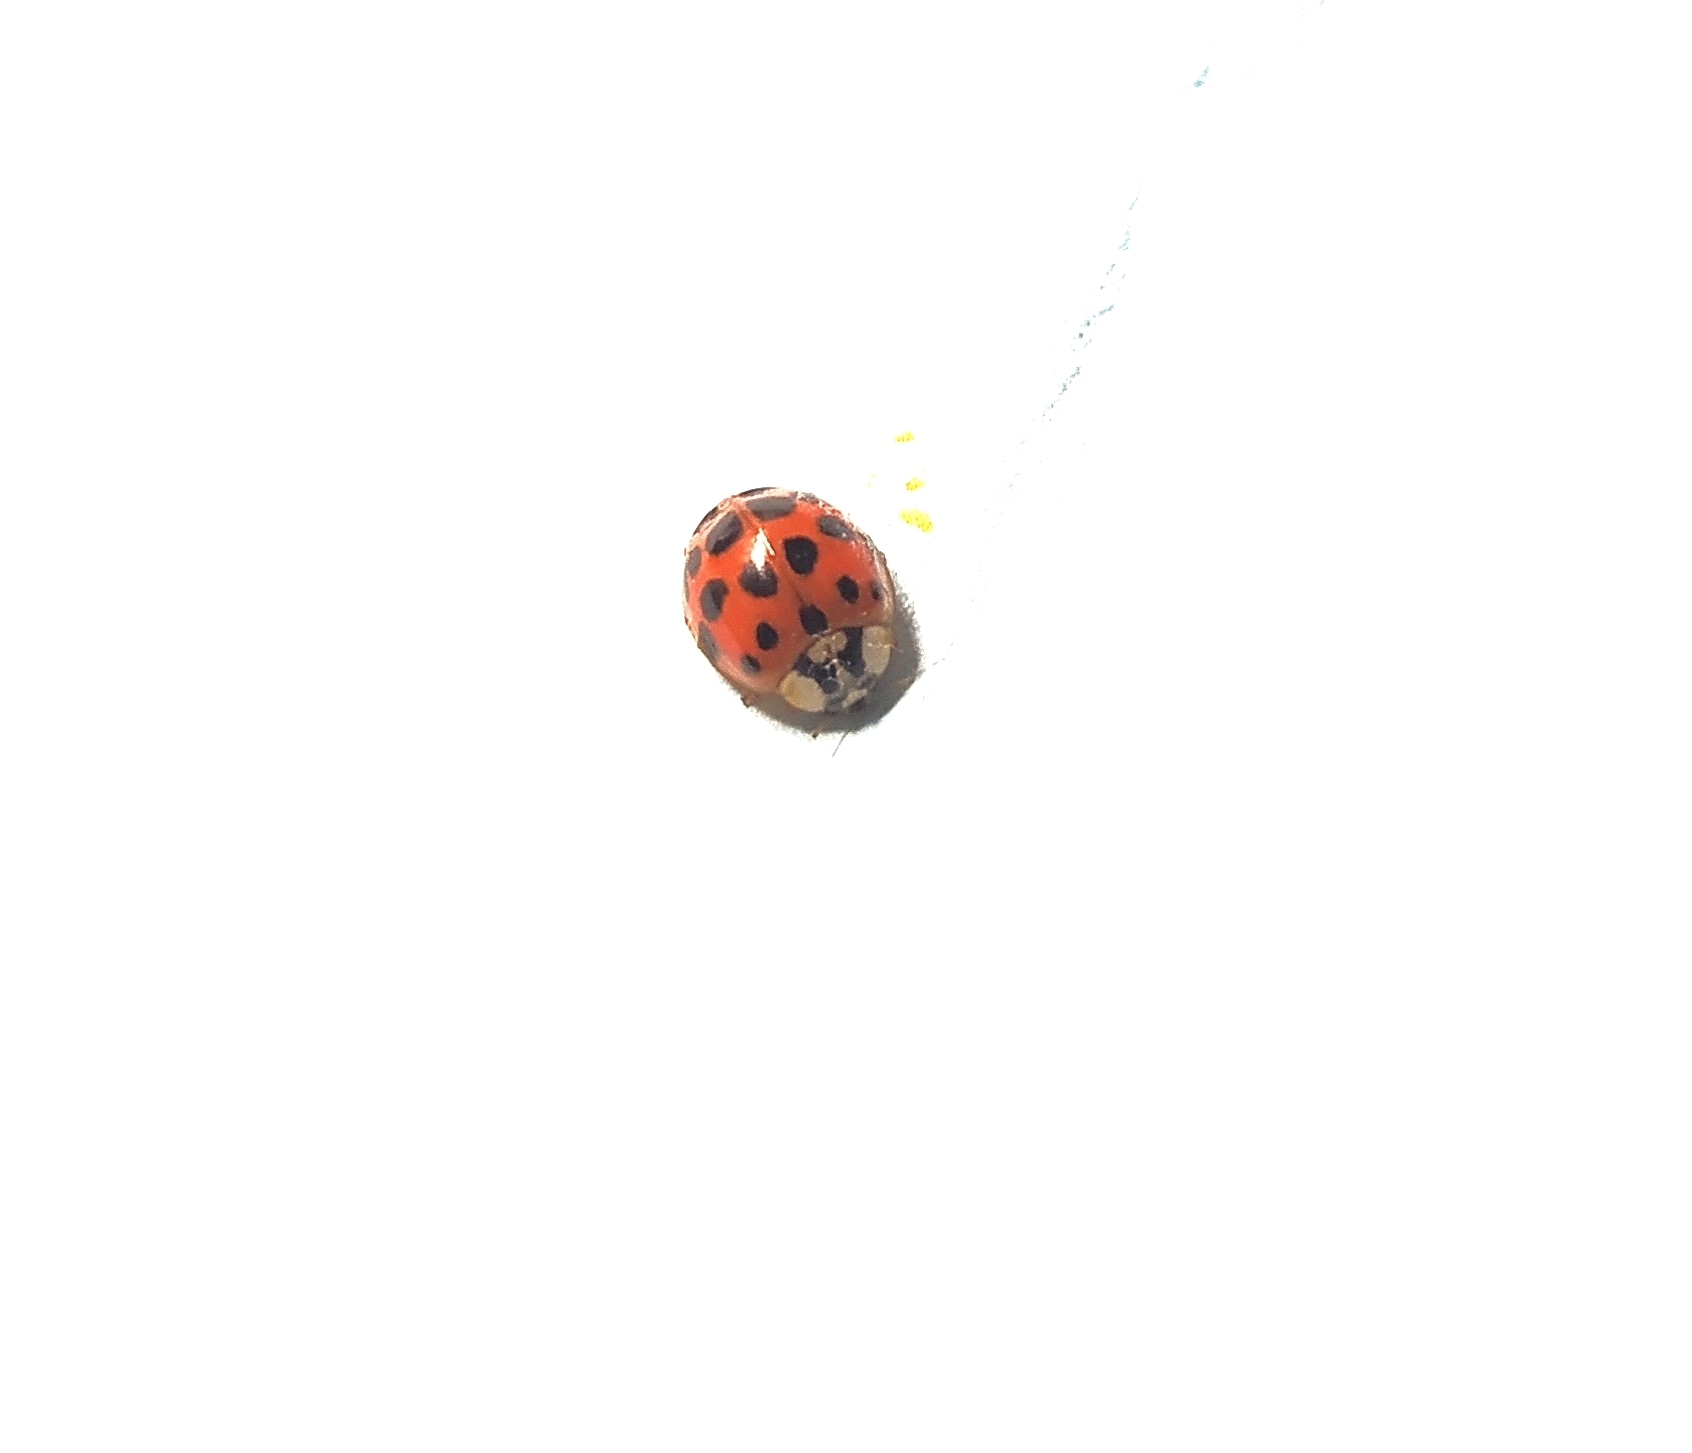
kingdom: Animalia
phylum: Arthropoda
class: Insecta
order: Coleoptera
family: Coccinellidae
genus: Harmonia
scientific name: Harmonia axyridis
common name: Harlequin ladybird
